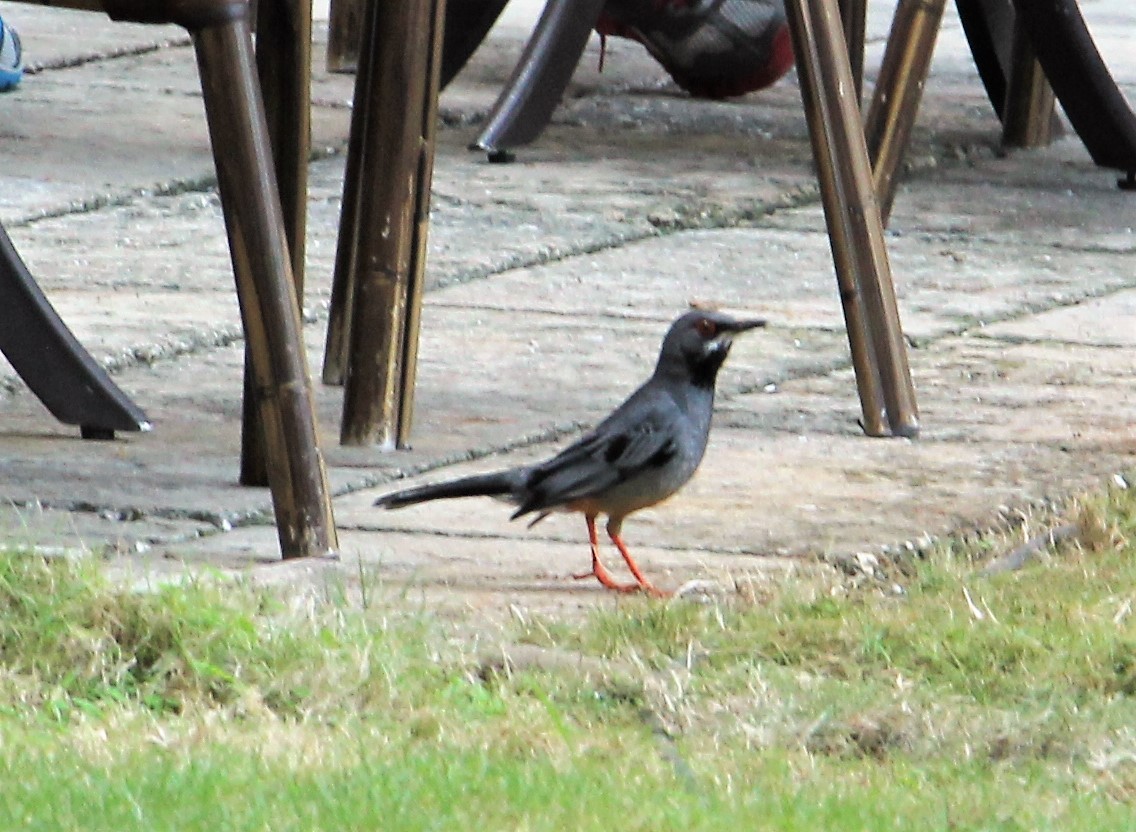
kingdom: Animalia
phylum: Chordata
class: Aves
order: Passeriformes
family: Turdidae
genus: Turdus
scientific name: Turdus plumbeus
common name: Red-legged thrush
